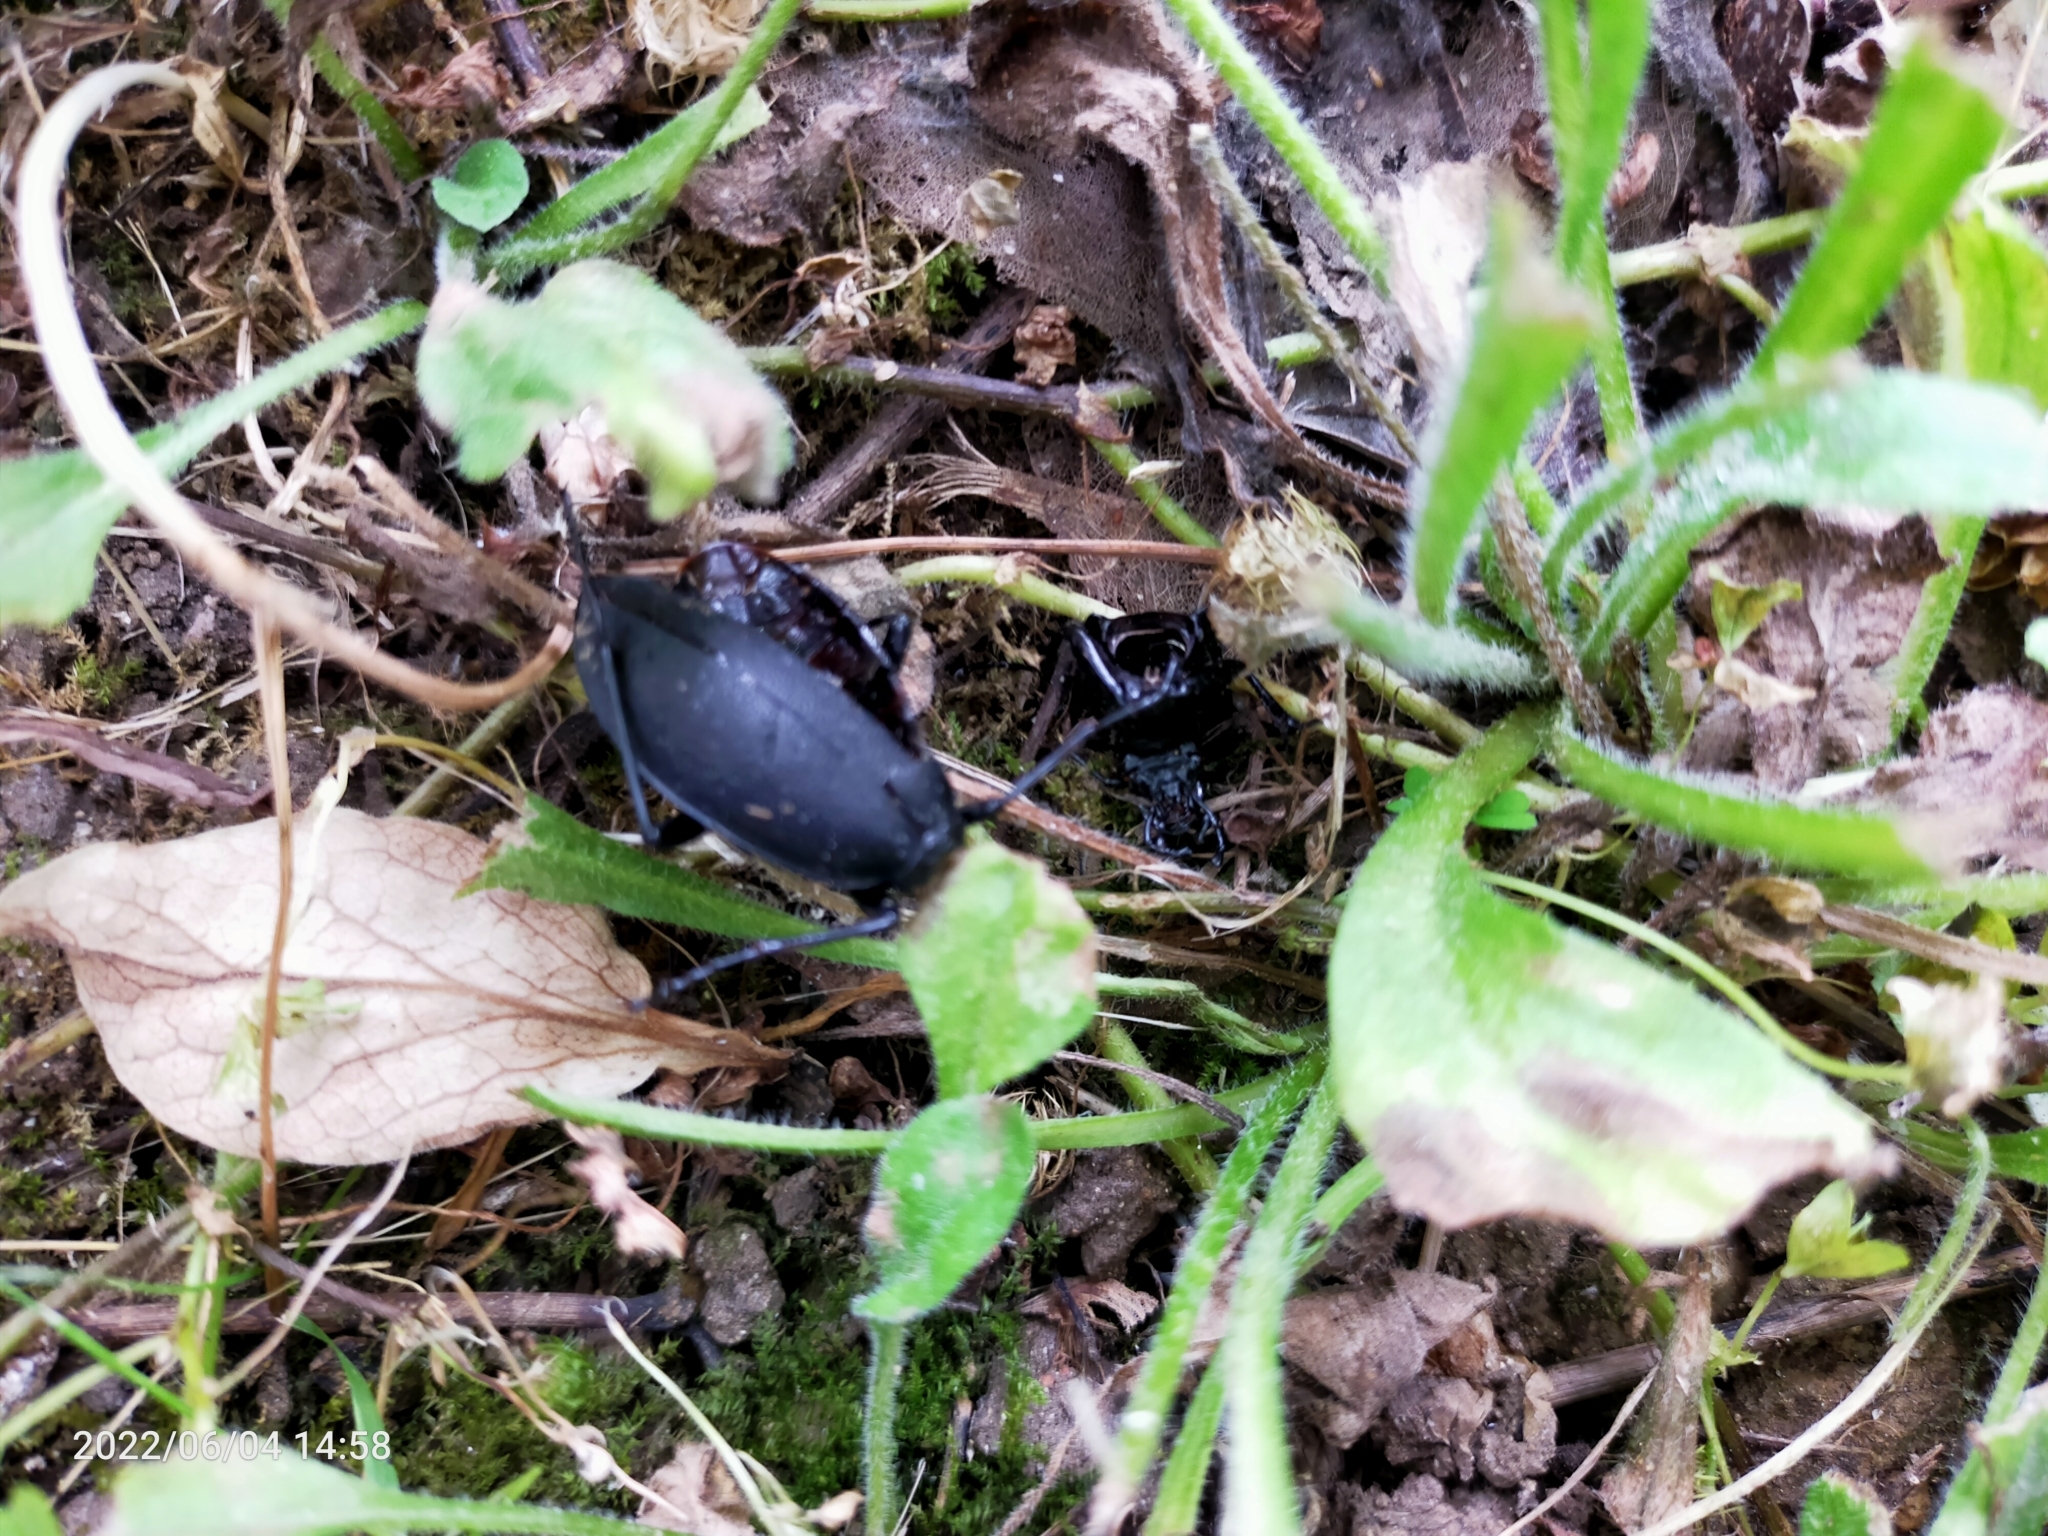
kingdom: Animalia
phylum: Arthropoda
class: Insecta
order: Coleoptera
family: Carabidae
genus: Carabus
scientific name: Carabus coriaceus
